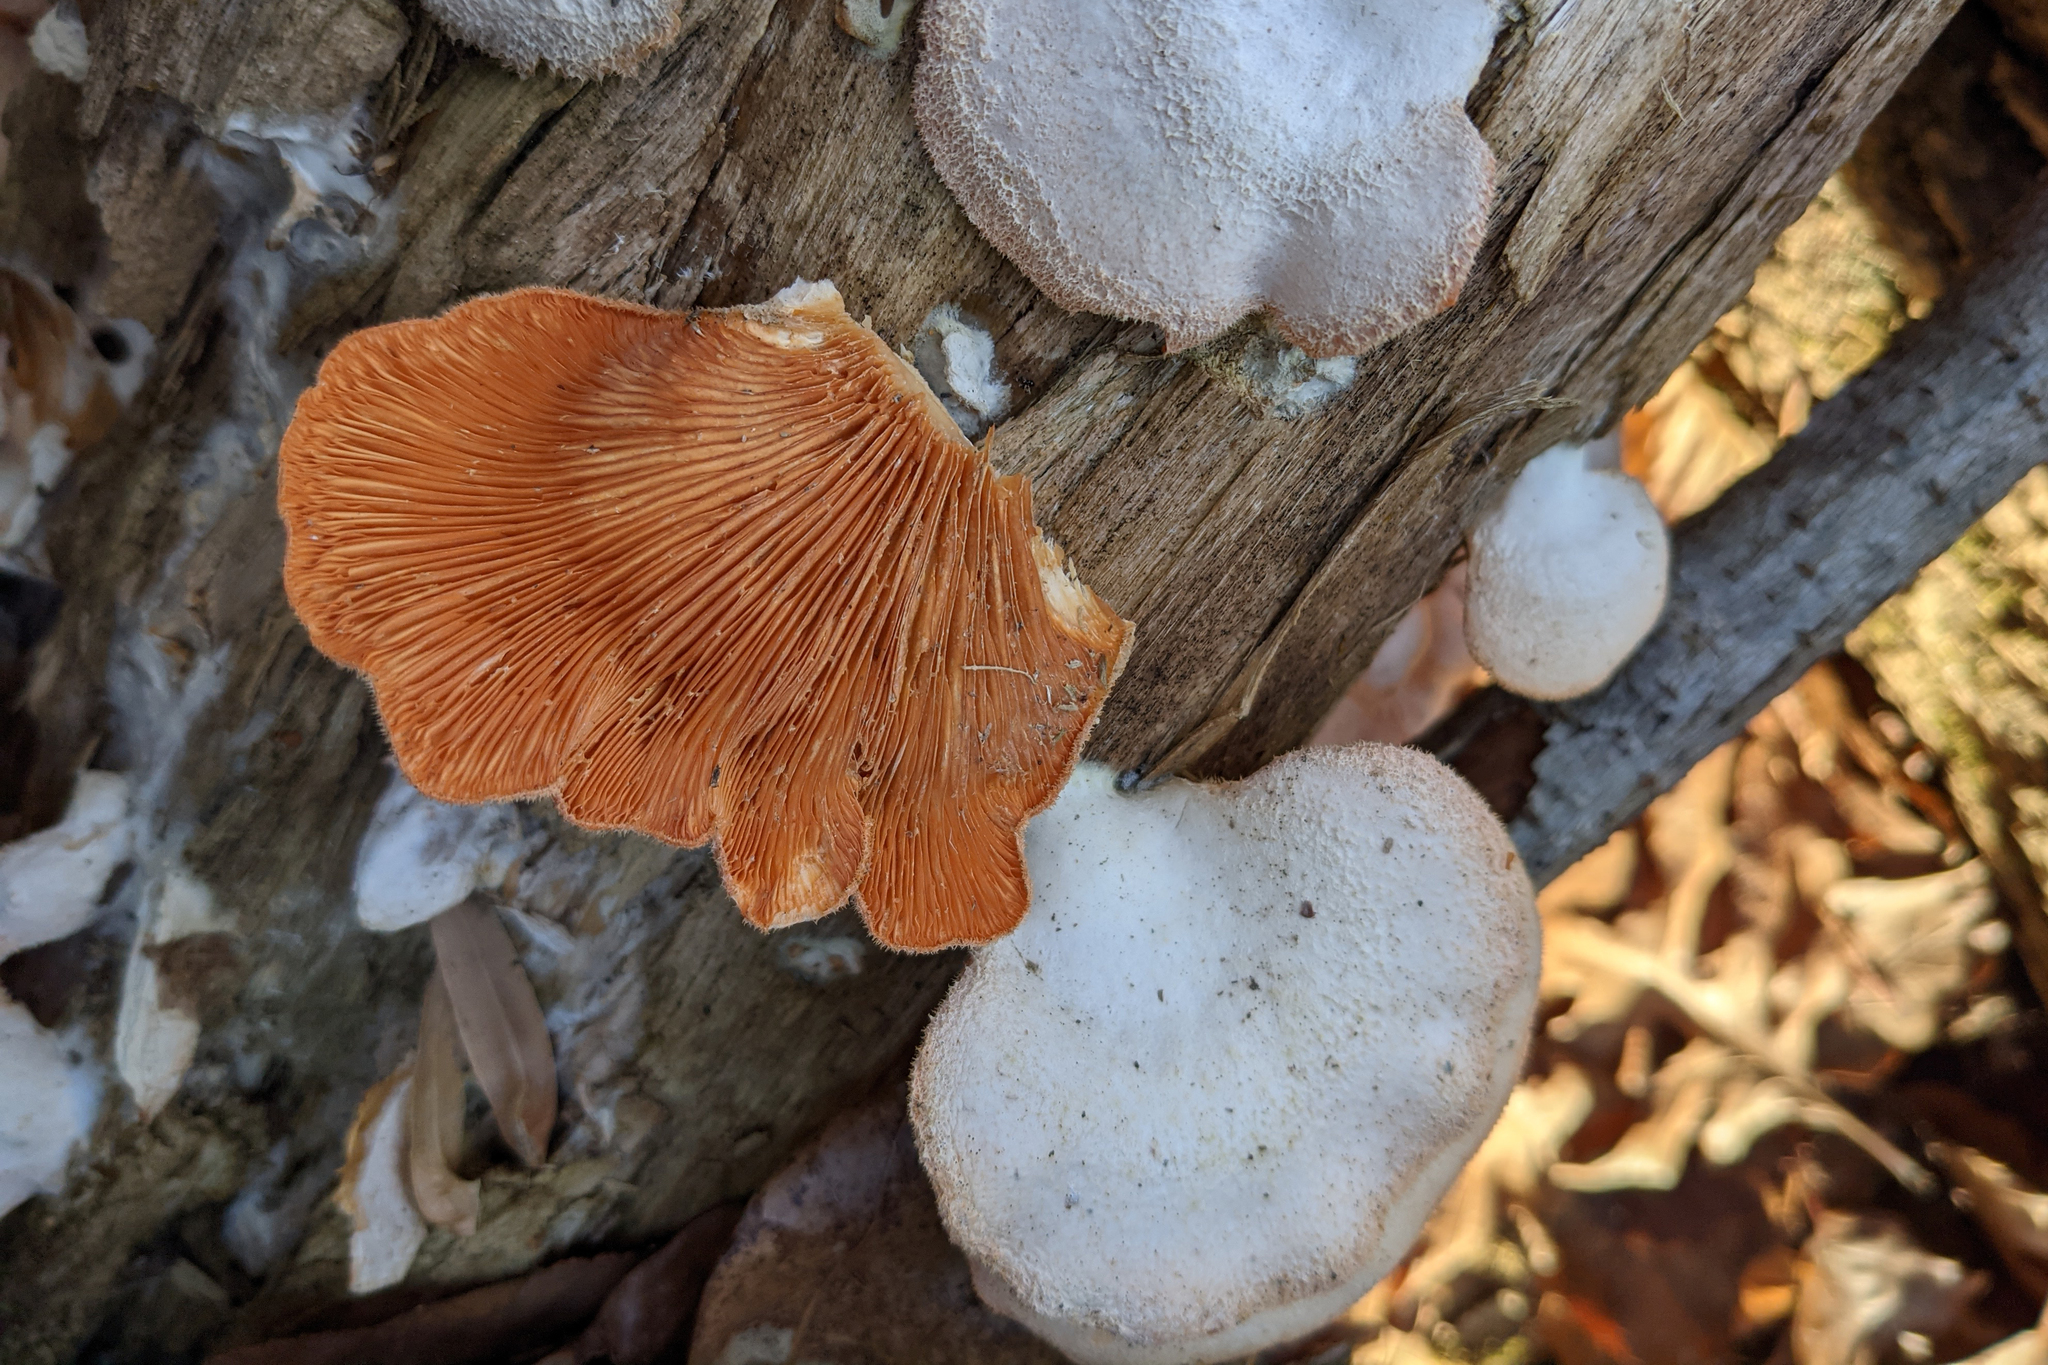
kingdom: Fungi
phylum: Basidiomycota
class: Agaricomycetes
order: Agaricales
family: Phyllotopsidaceae
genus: Phyllotopsis
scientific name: Phyllotopsis nidulans
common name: Orange mock oyster
